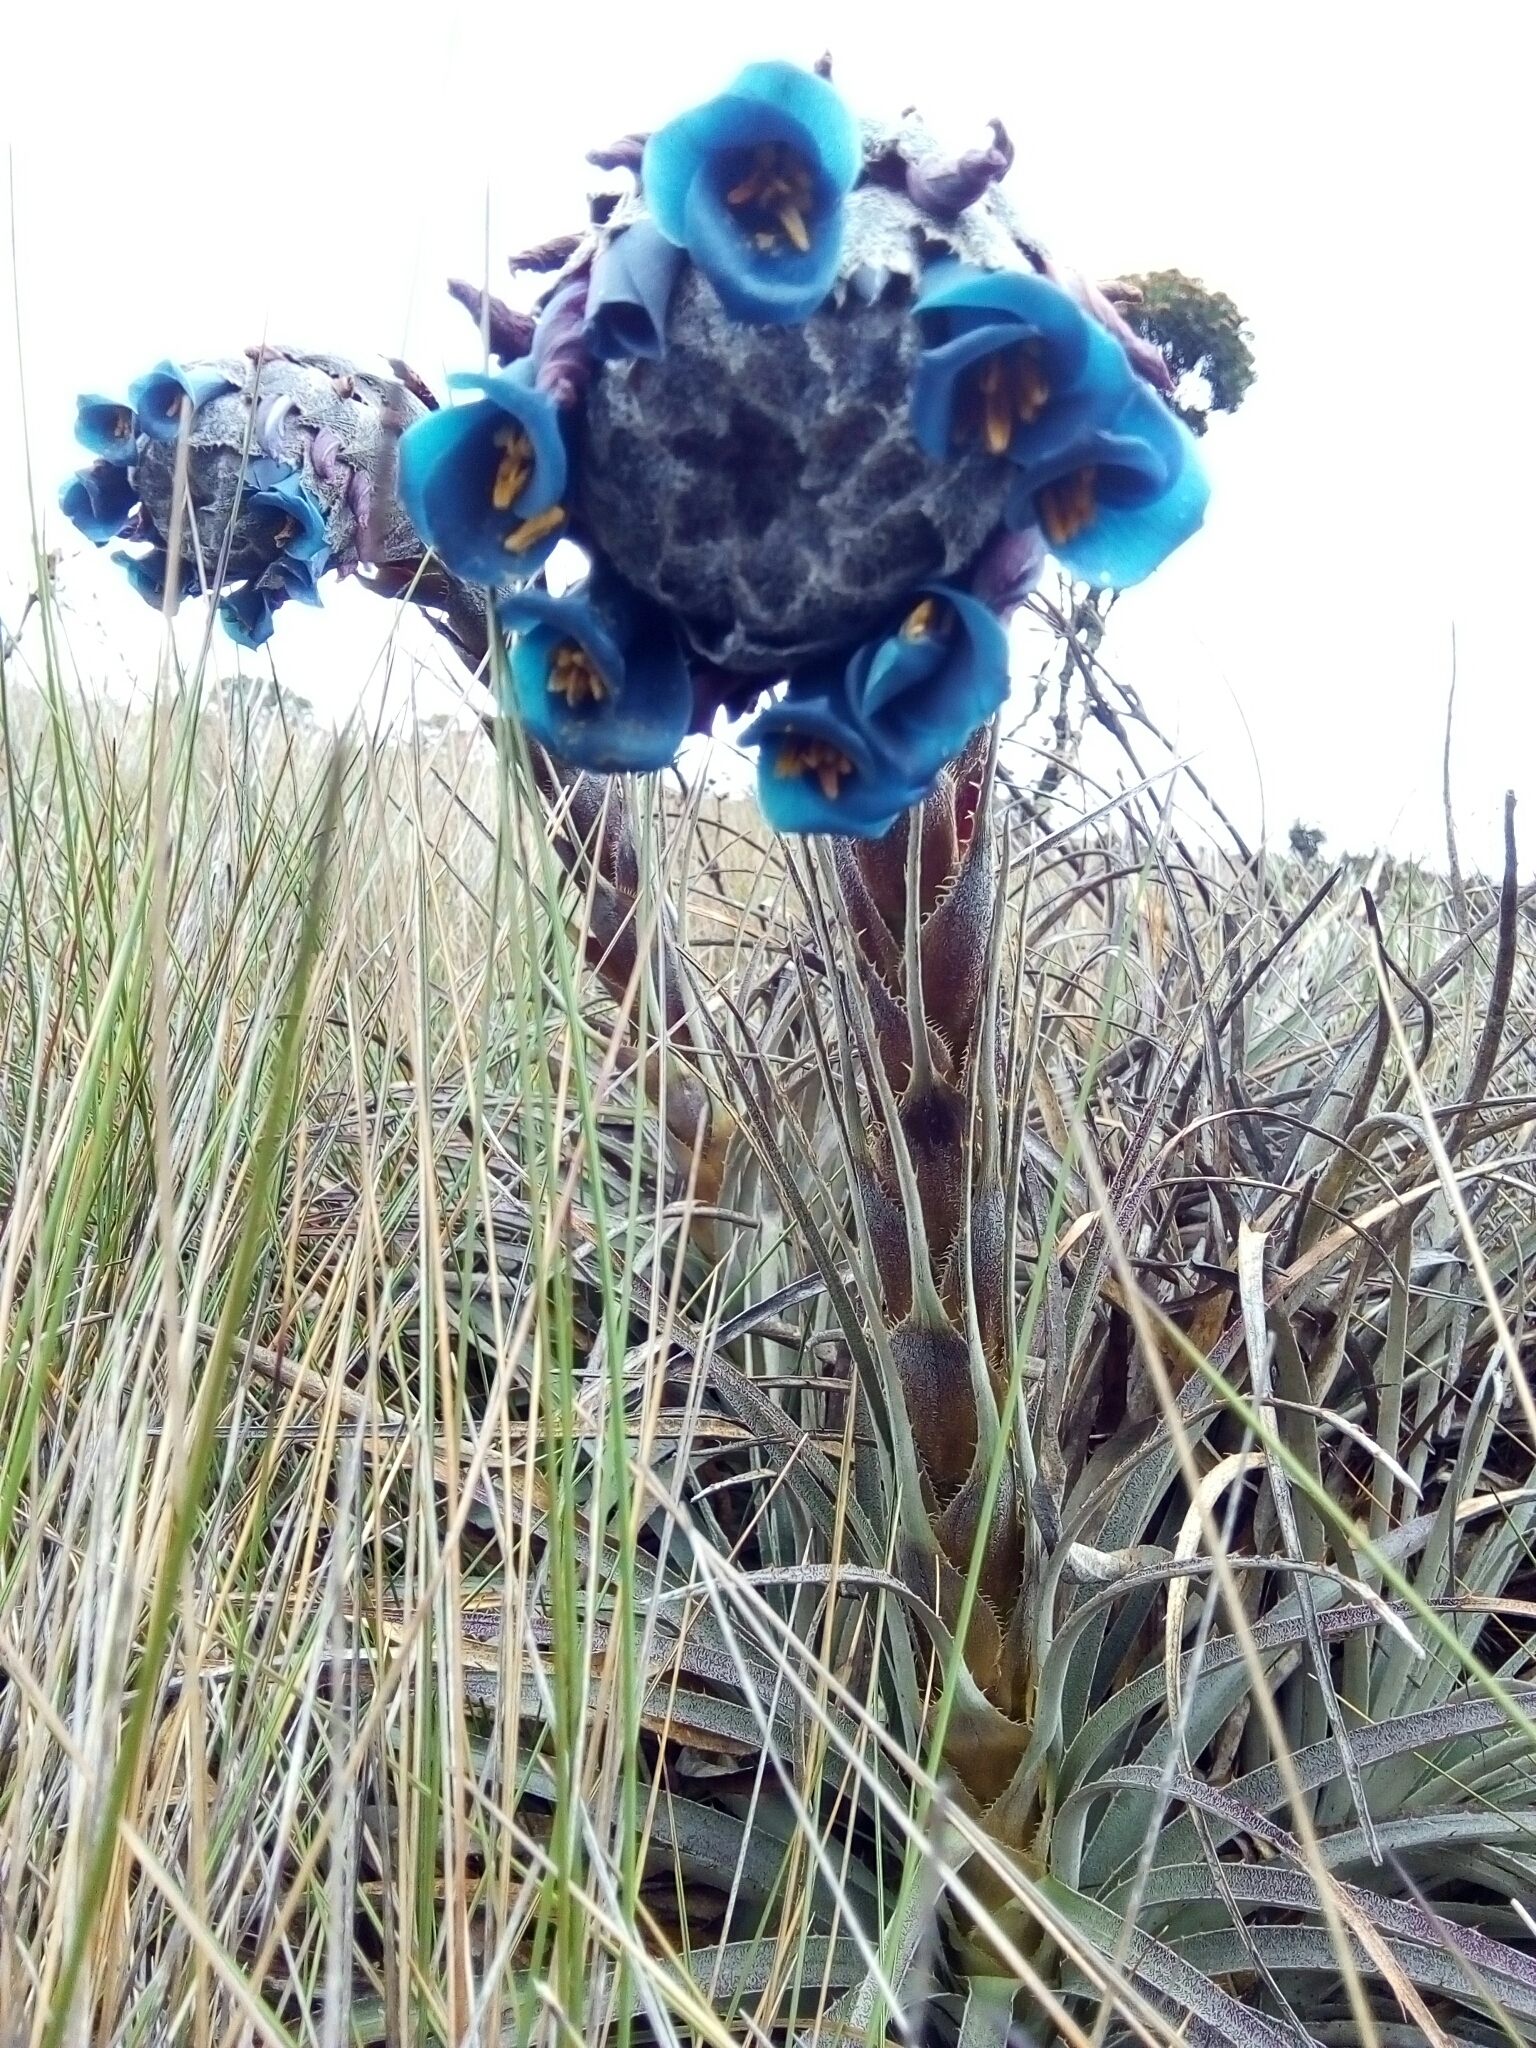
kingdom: Plantae
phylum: Tracheophyta
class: Liliopsida
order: Poales
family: Bromeliaceae
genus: Puya
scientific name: Puya lineata
